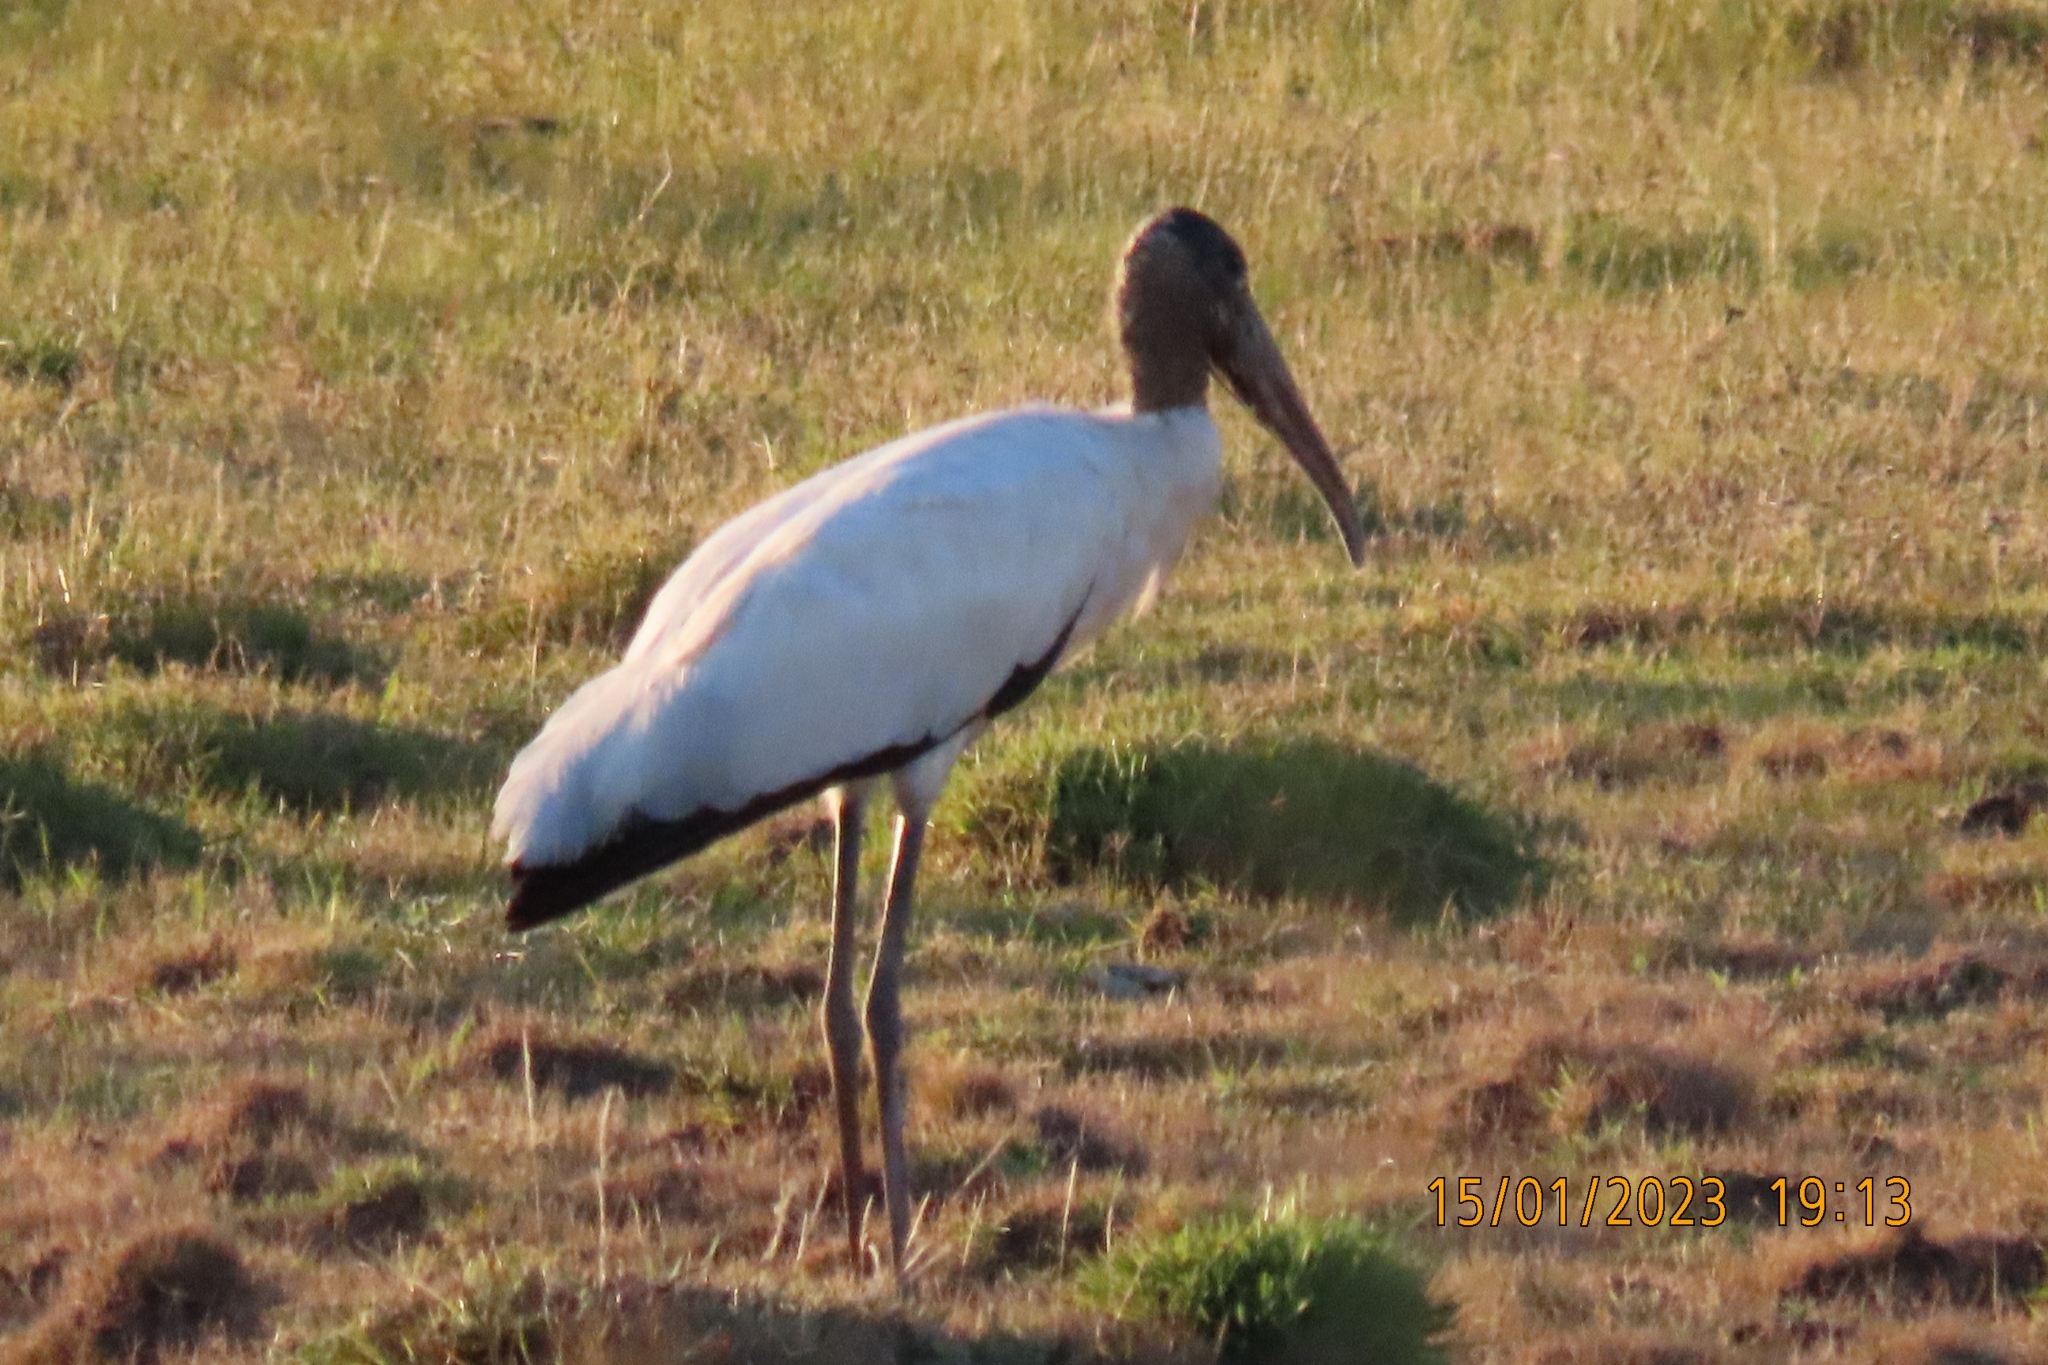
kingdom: Animalia
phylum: Chordata
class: Aves
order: Ciconiiformes
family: Ciconiidae
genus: Mycteria
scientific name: Mycteria americana
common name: Wood stork
